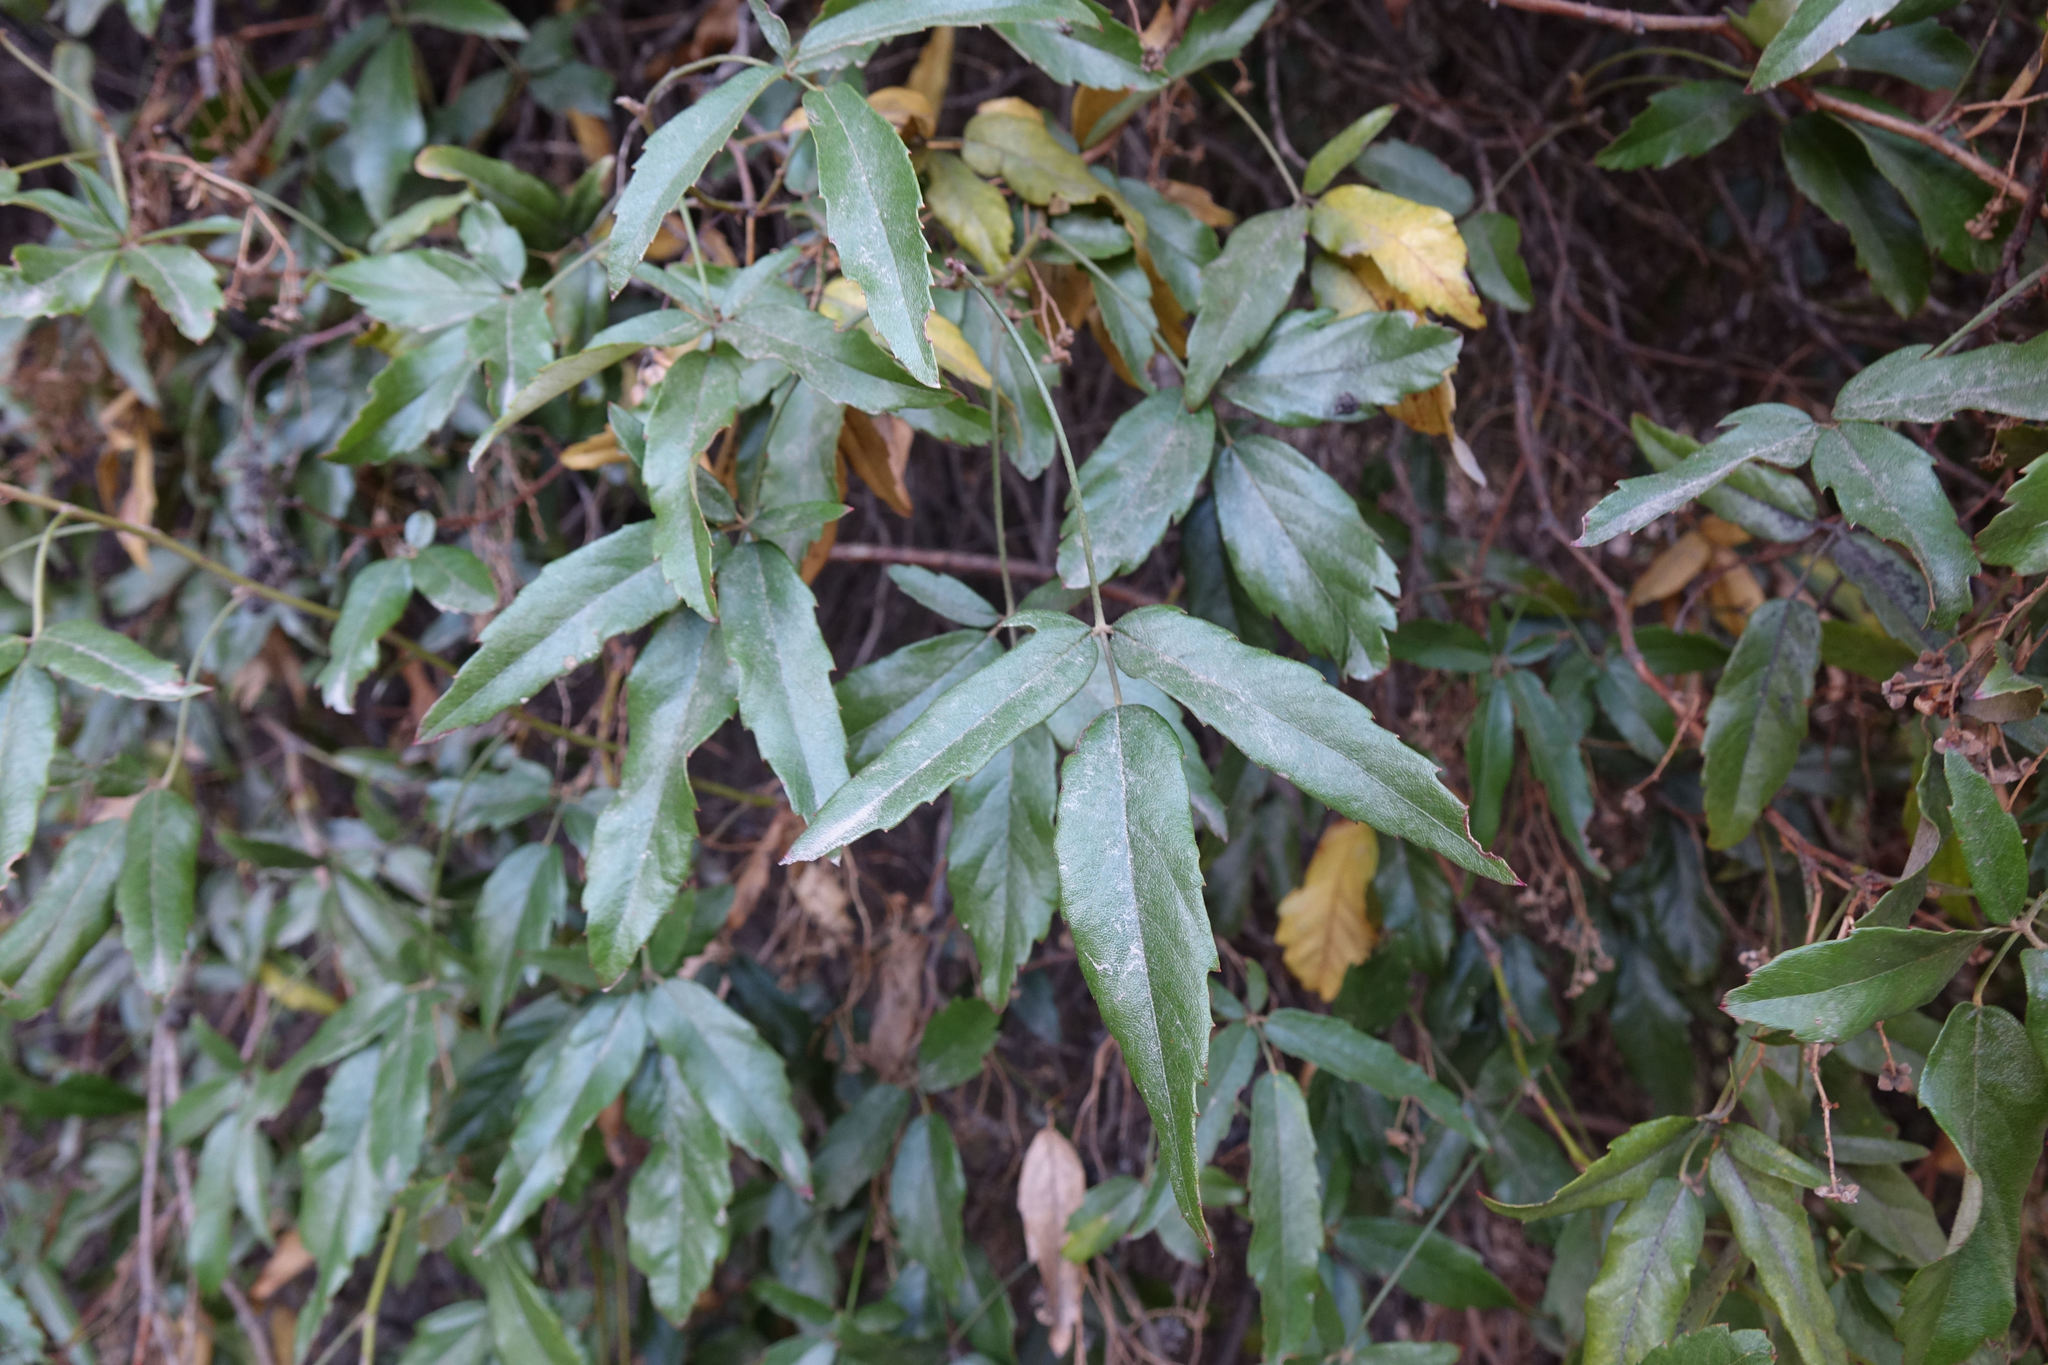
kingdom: Plantae
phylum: Tracheophyta
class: Magnoliopsida
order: Rosales
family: Rosaceae
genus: Rubus
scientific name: Rubus schmidelioides
